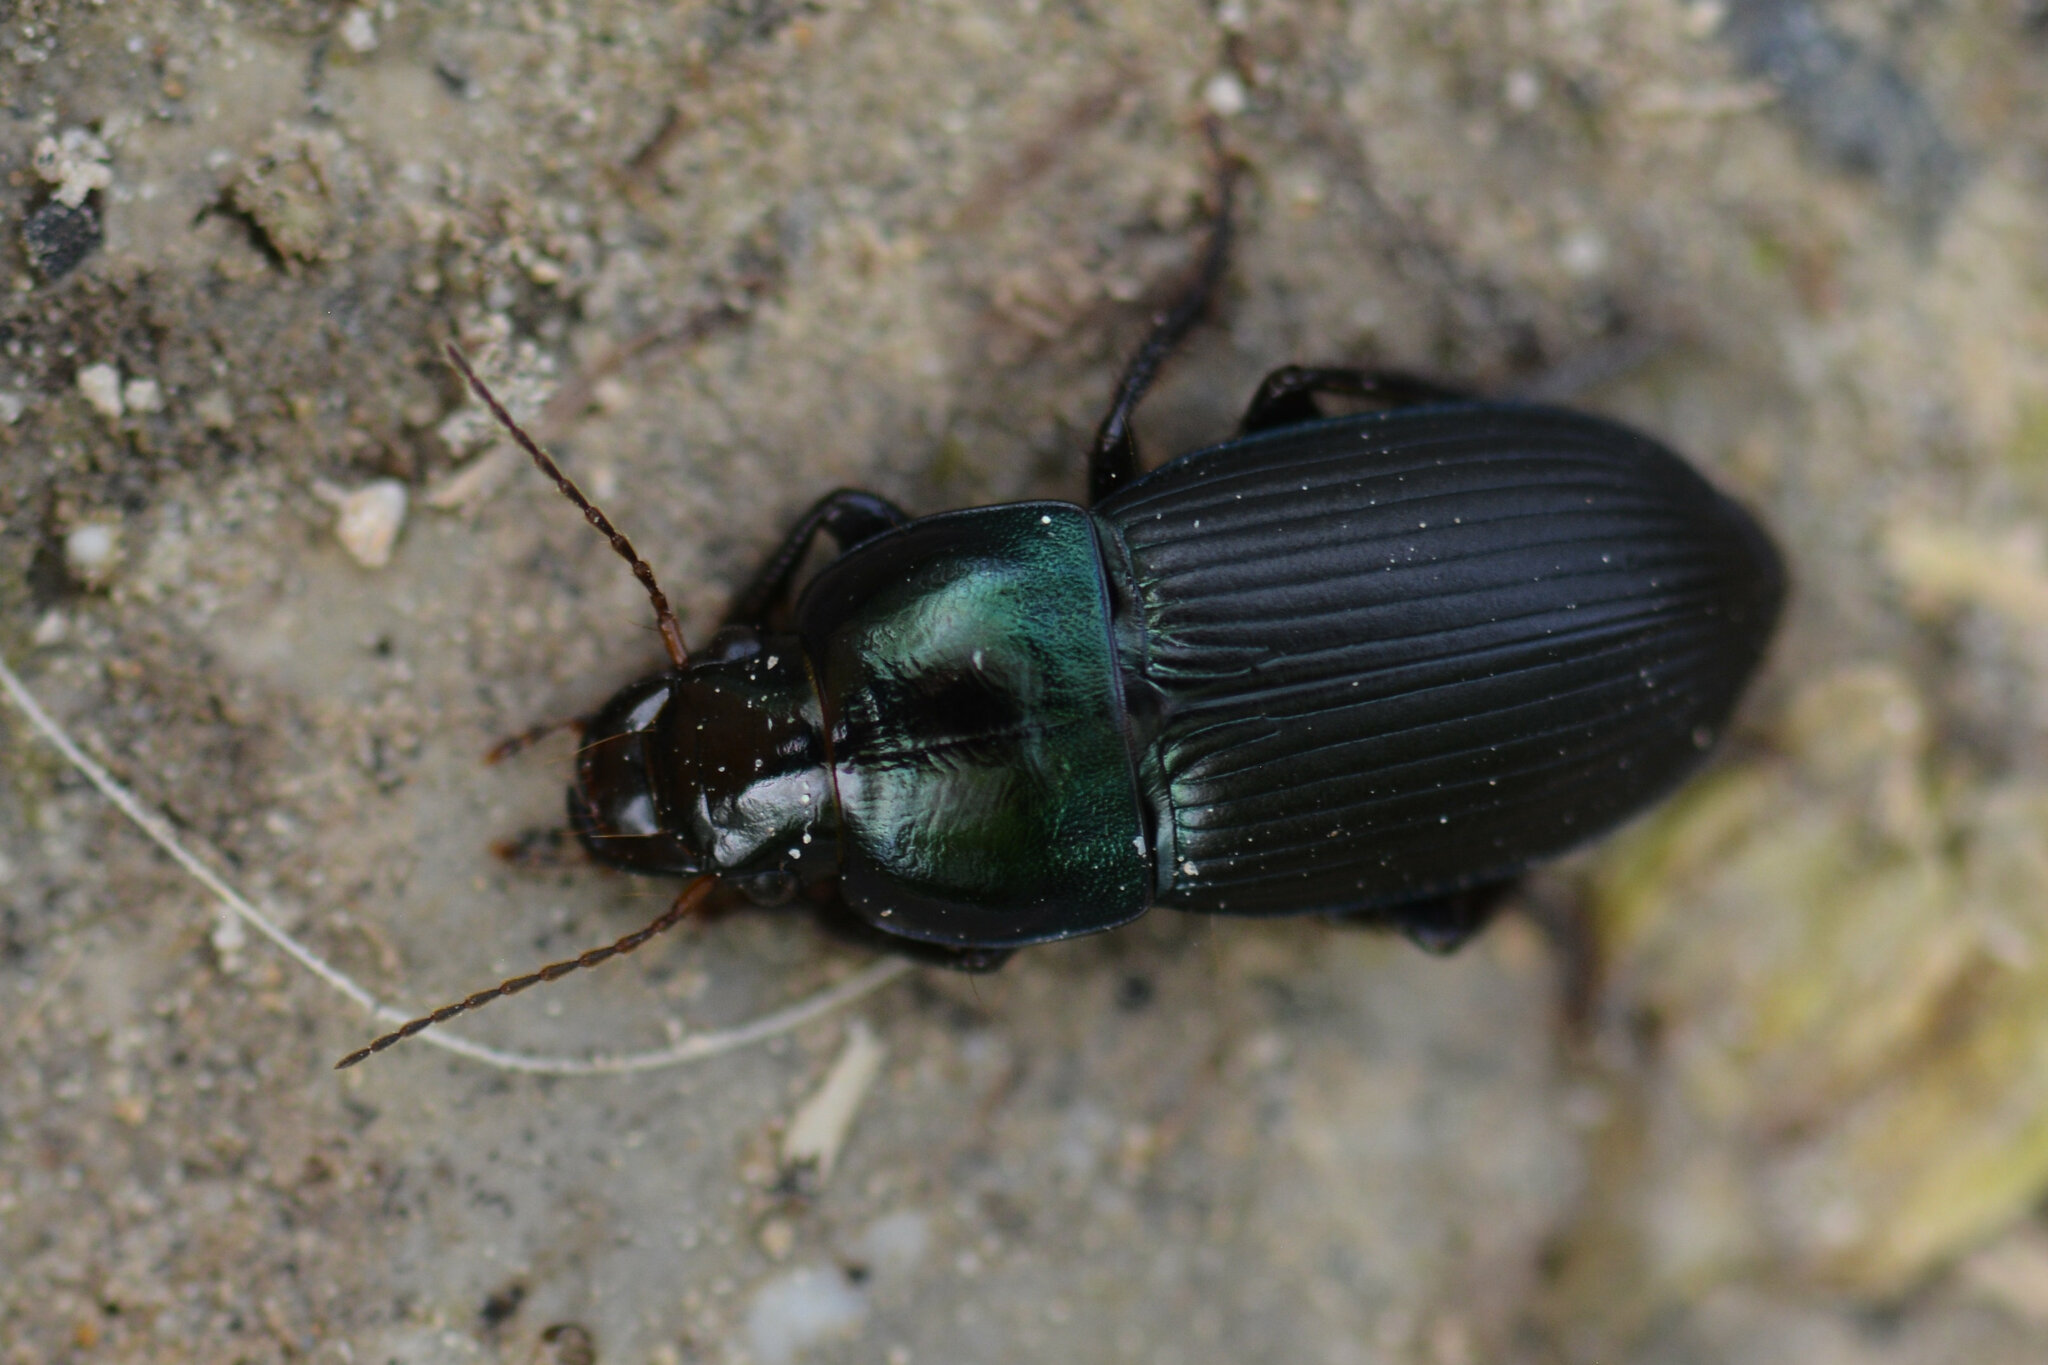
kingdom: Animalia
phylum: Arthropoda
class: Insecta
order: Coleoptera
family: Carabidae
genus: Harpalus
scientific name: Harpalus dimidiatus
